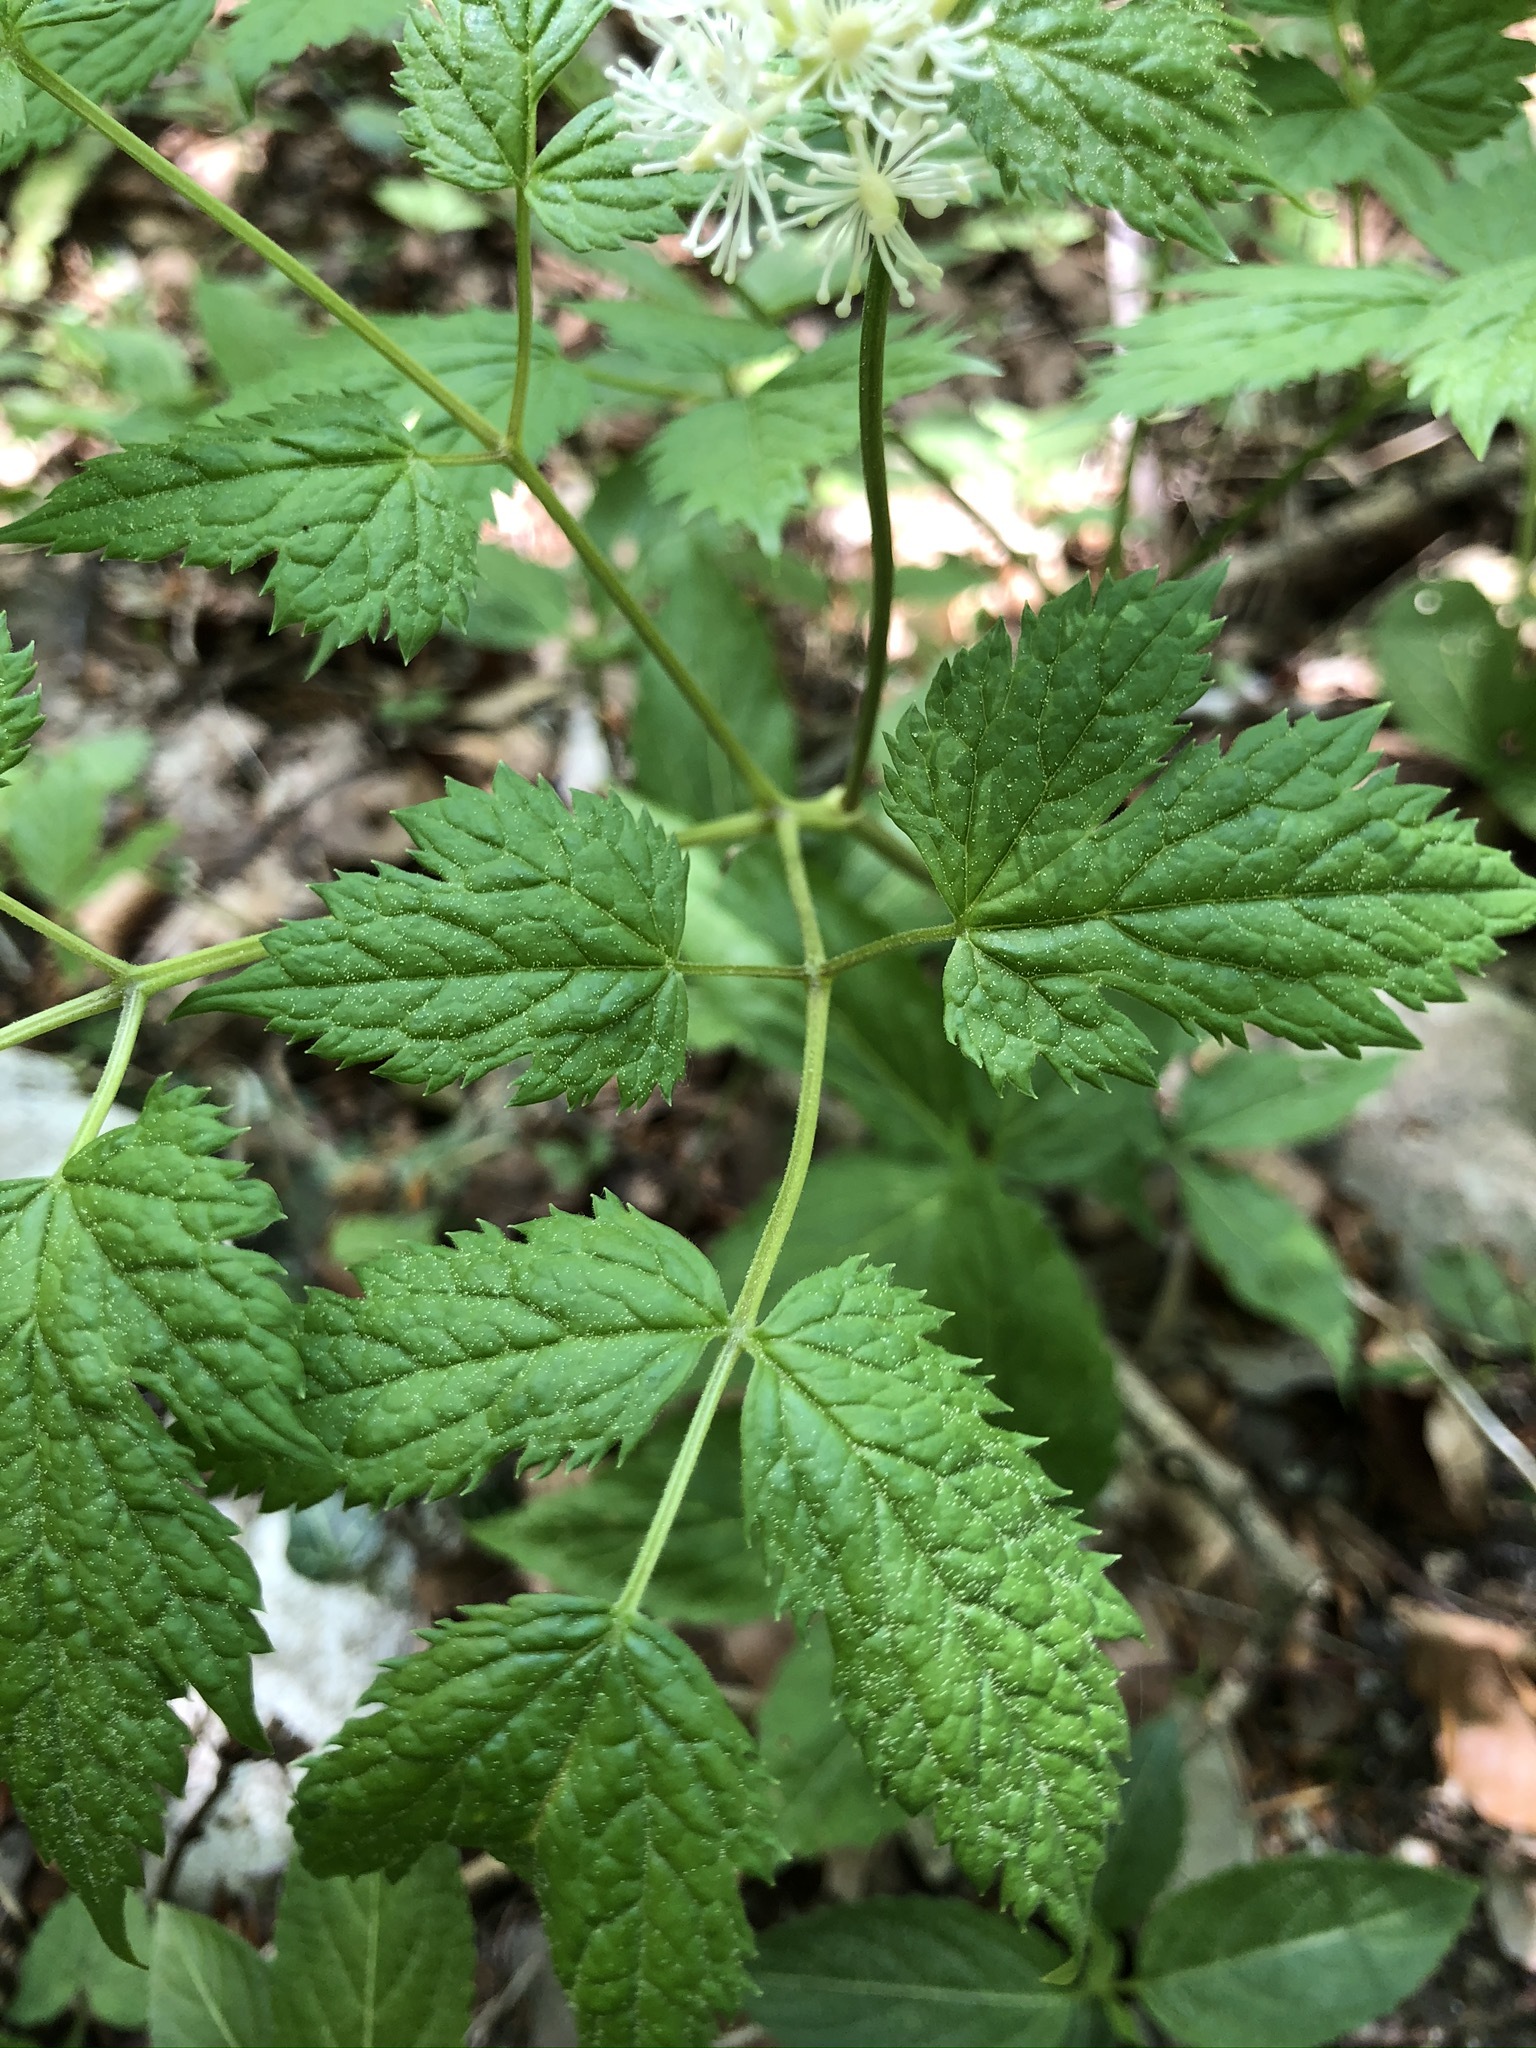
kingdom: Plantae
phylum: Tracheophyta
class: Magnoliopsida
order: Ranunculales
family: Ranunculaceae
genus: Actaea
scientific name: Actaea spicata
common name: Baneberry
